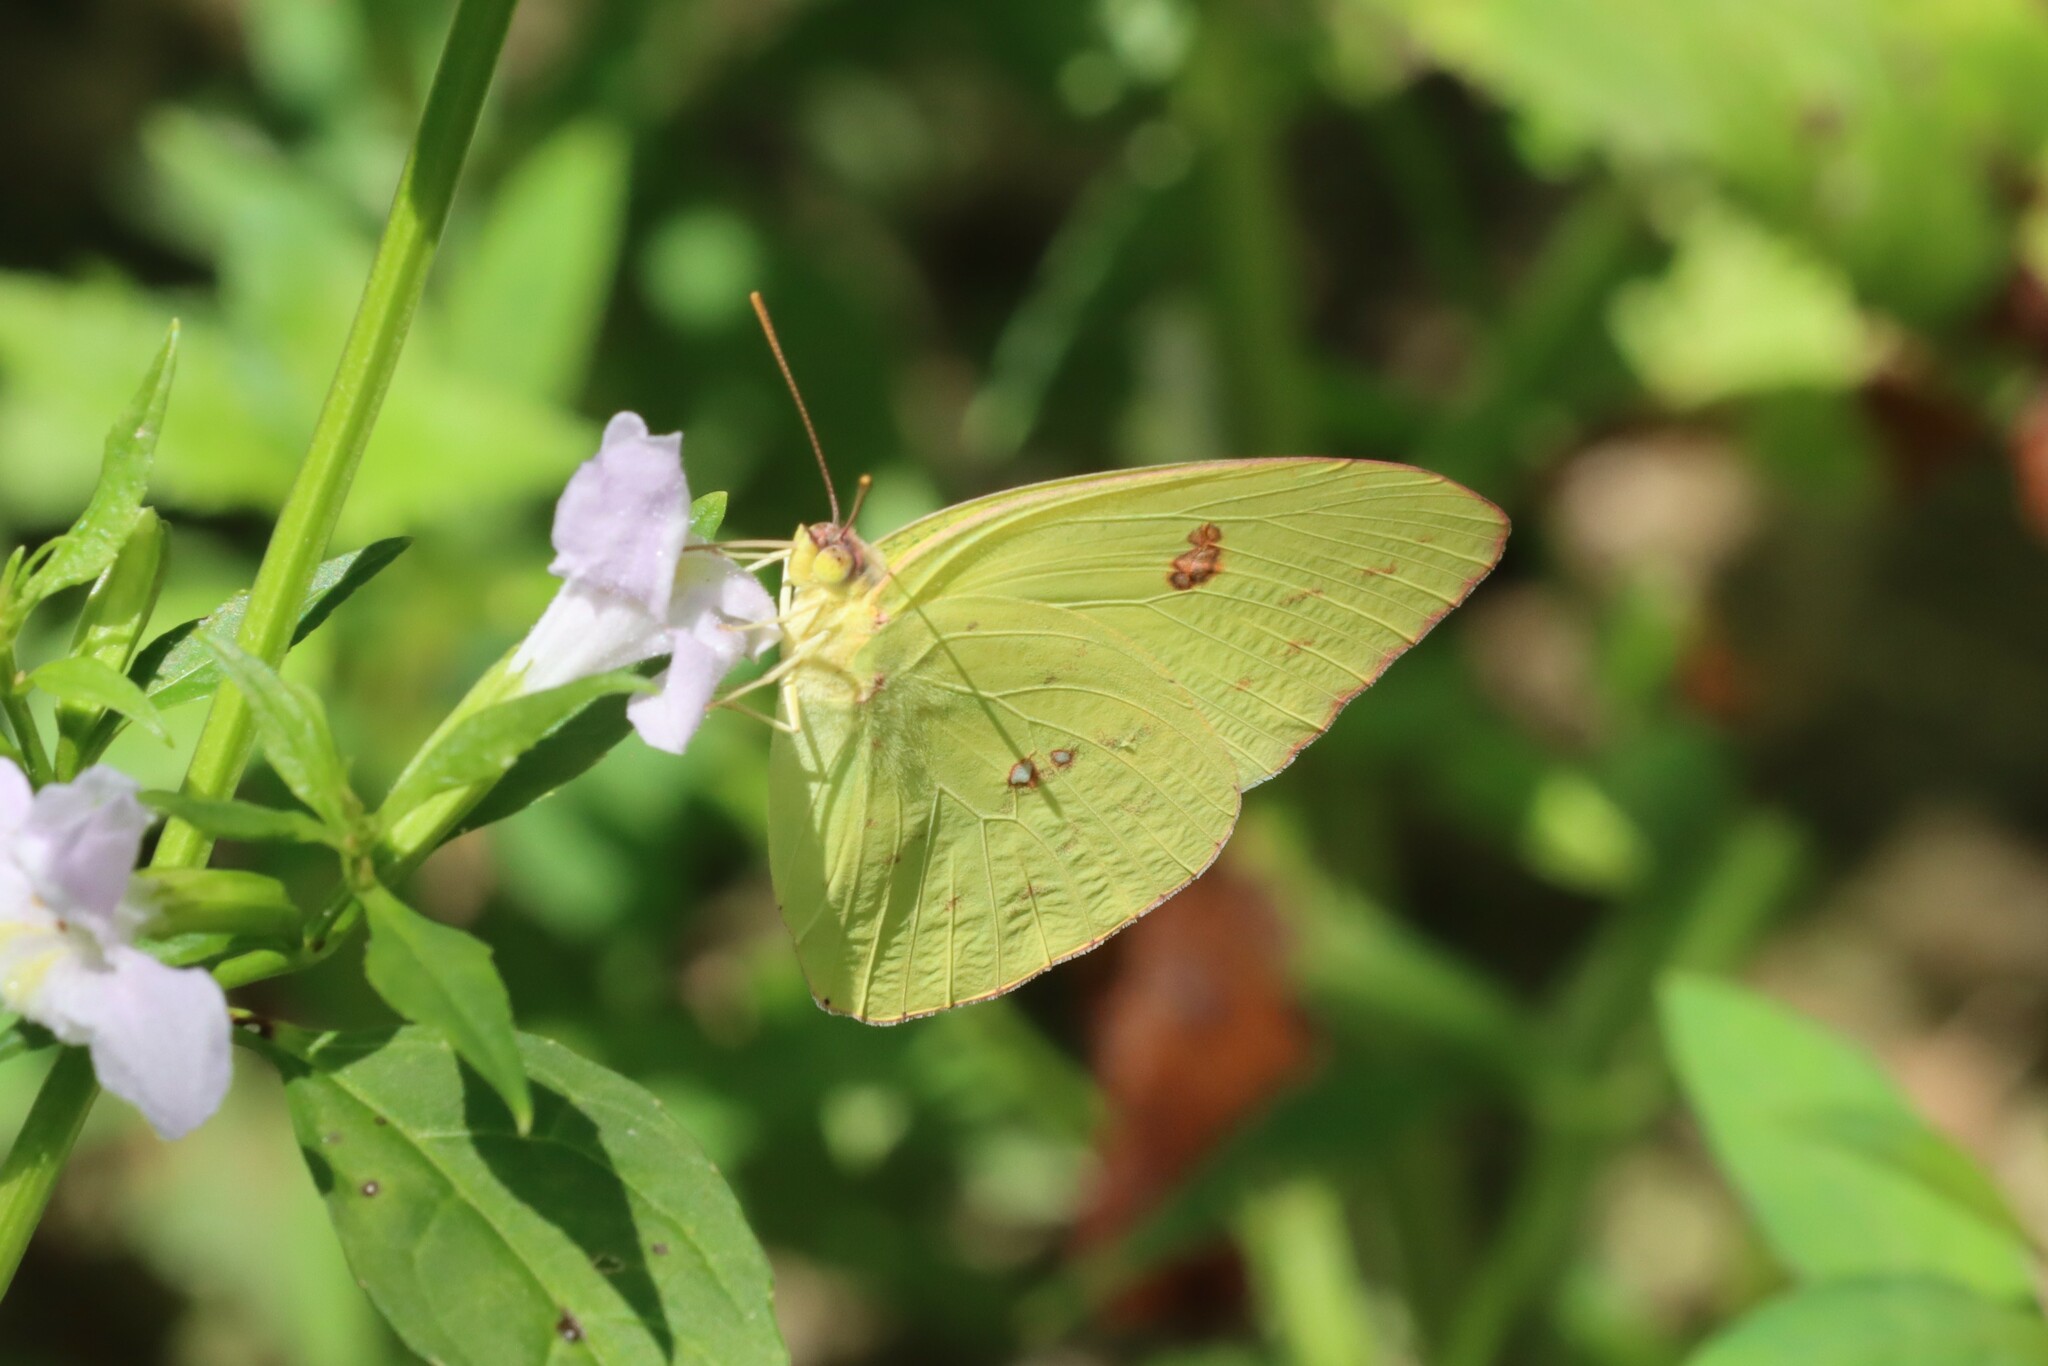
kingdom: Animalia
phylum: Arthropoda
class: Insecta
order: Lepidoptera
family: Pieridae
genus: Phoebis
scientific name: Phoebis sennae
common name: Cloudless sulphur
